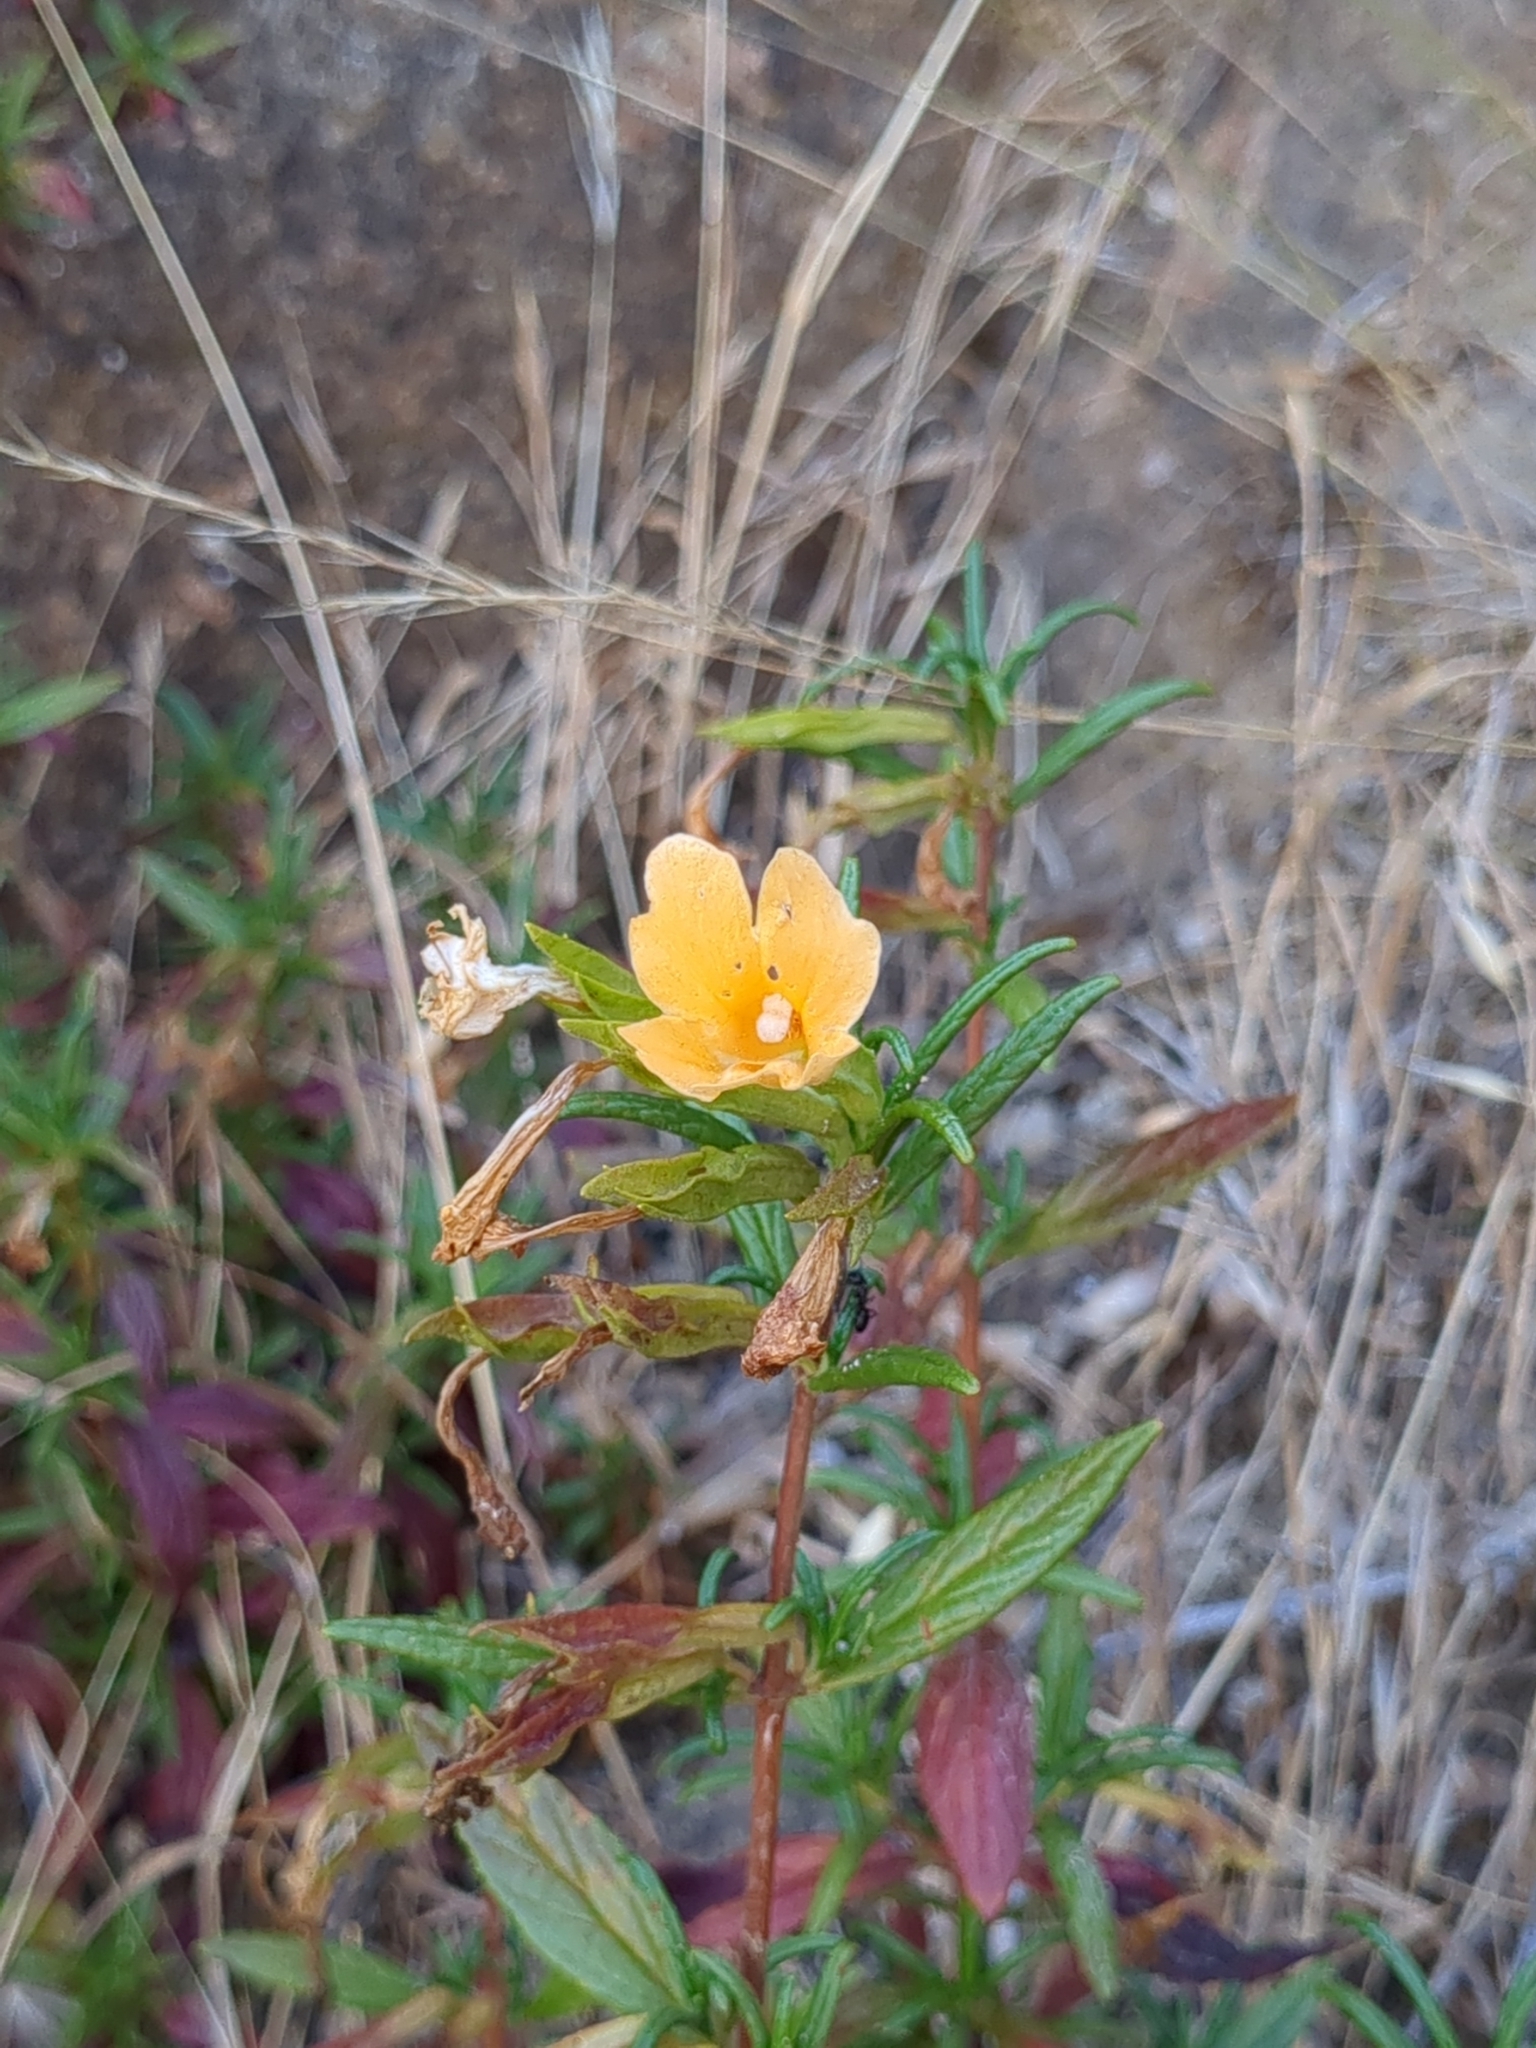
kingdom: Plantae
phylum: Tracheophyta
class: Magnoliopsida
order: Lamiales
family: Phrymaceae
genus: Diplacus
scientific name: Diplacus aurantiacus
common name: Bush monkey-flower
